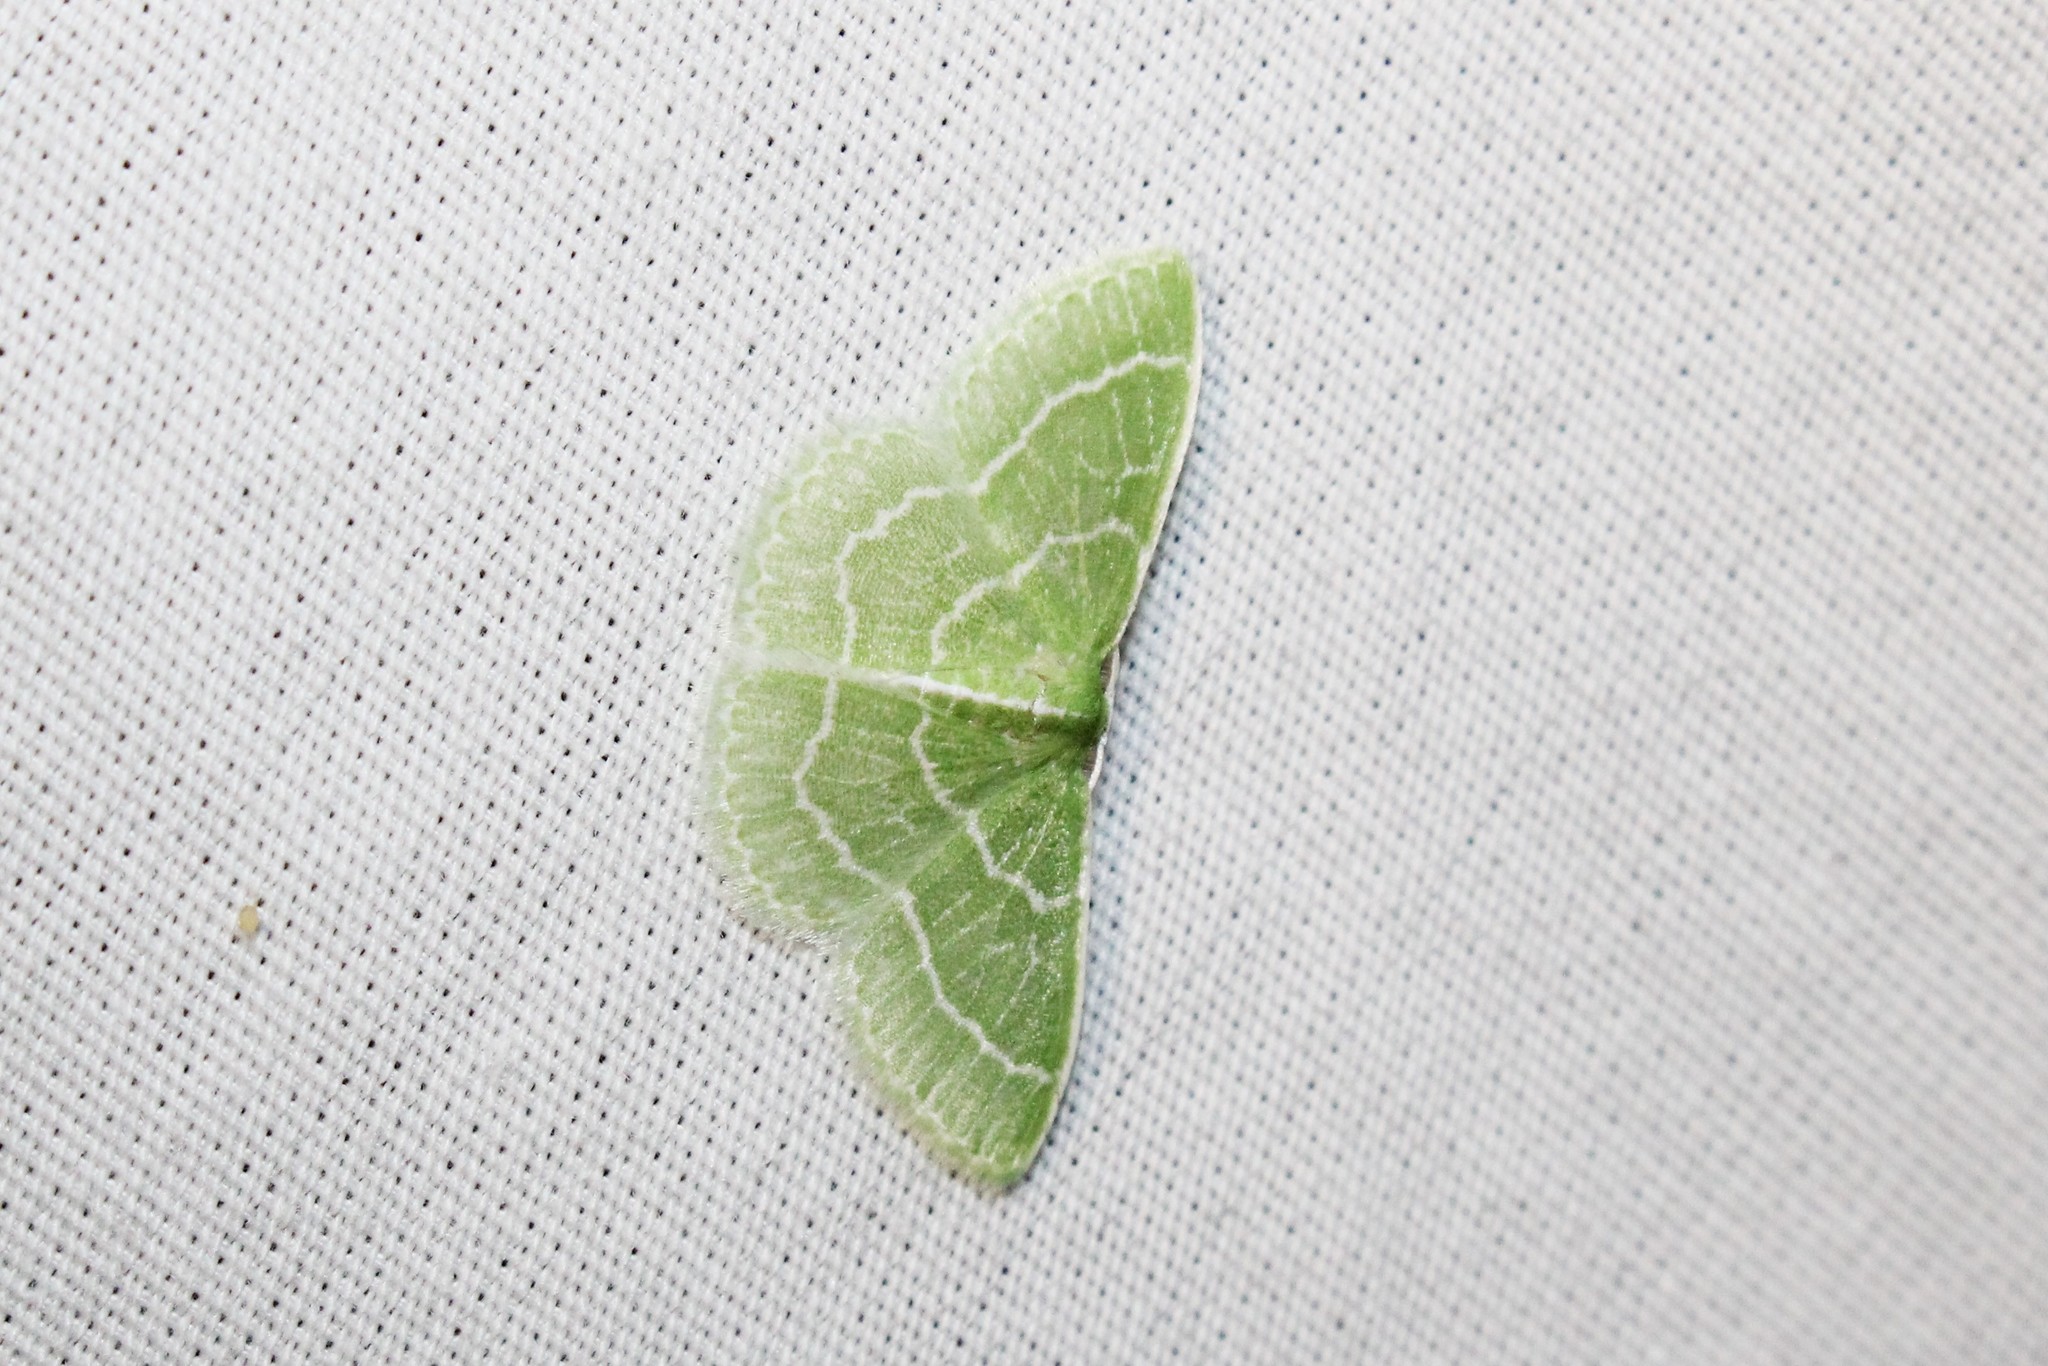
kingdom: Animalia
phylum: Arthropoda
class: Insecta
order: Lepidoptera
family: Geometridae
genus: Synchlora
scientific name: Synchlora aerata
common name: Wavy-lined emerald
